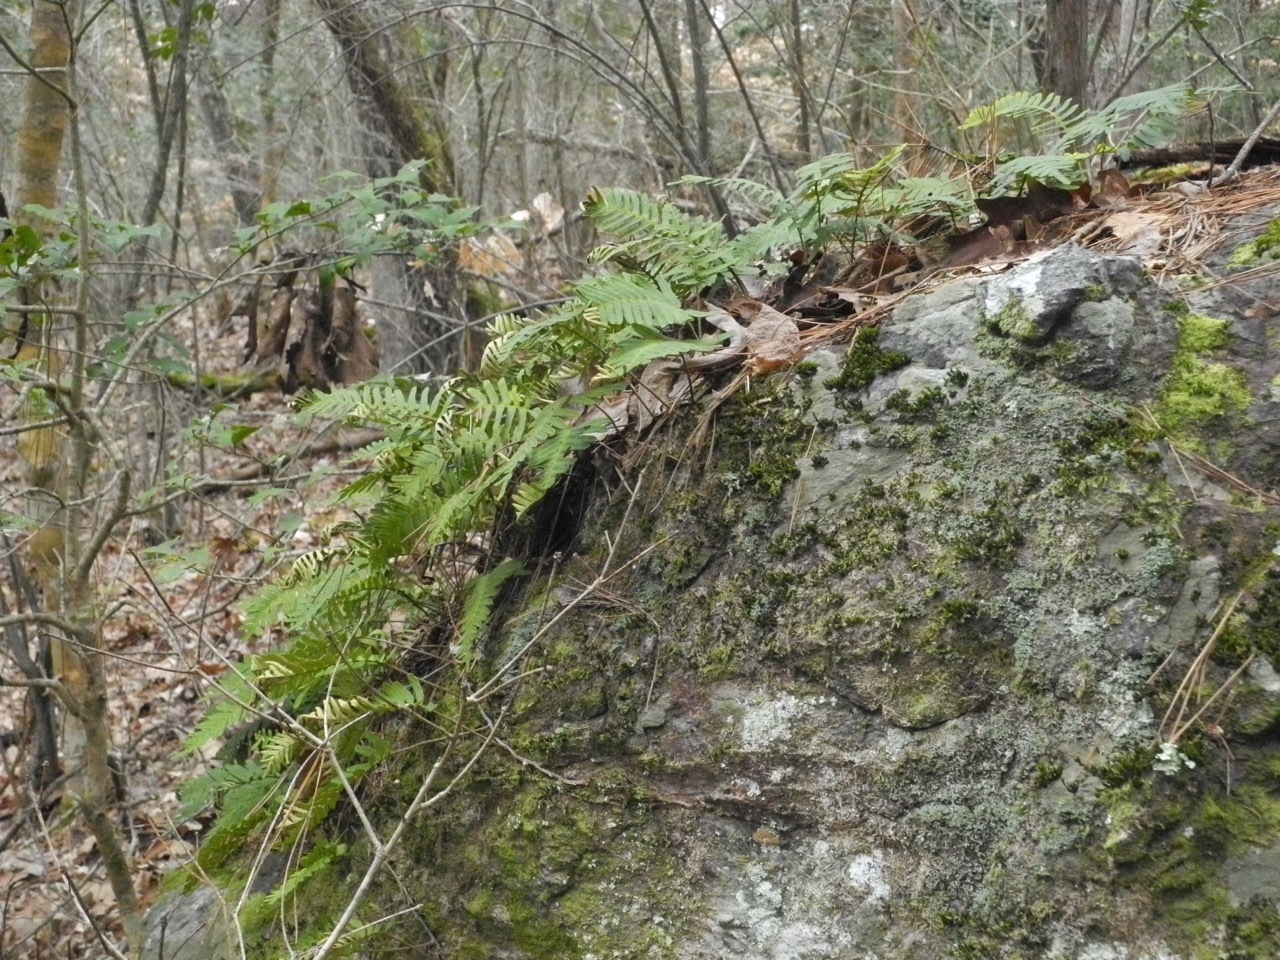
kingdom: Plantae
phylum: Tracheophyta
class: Polypodiopsida
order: Polypodiales
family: Polypodiaceae
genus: Pleopeltis
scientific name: Pleopeltis michauxiana
